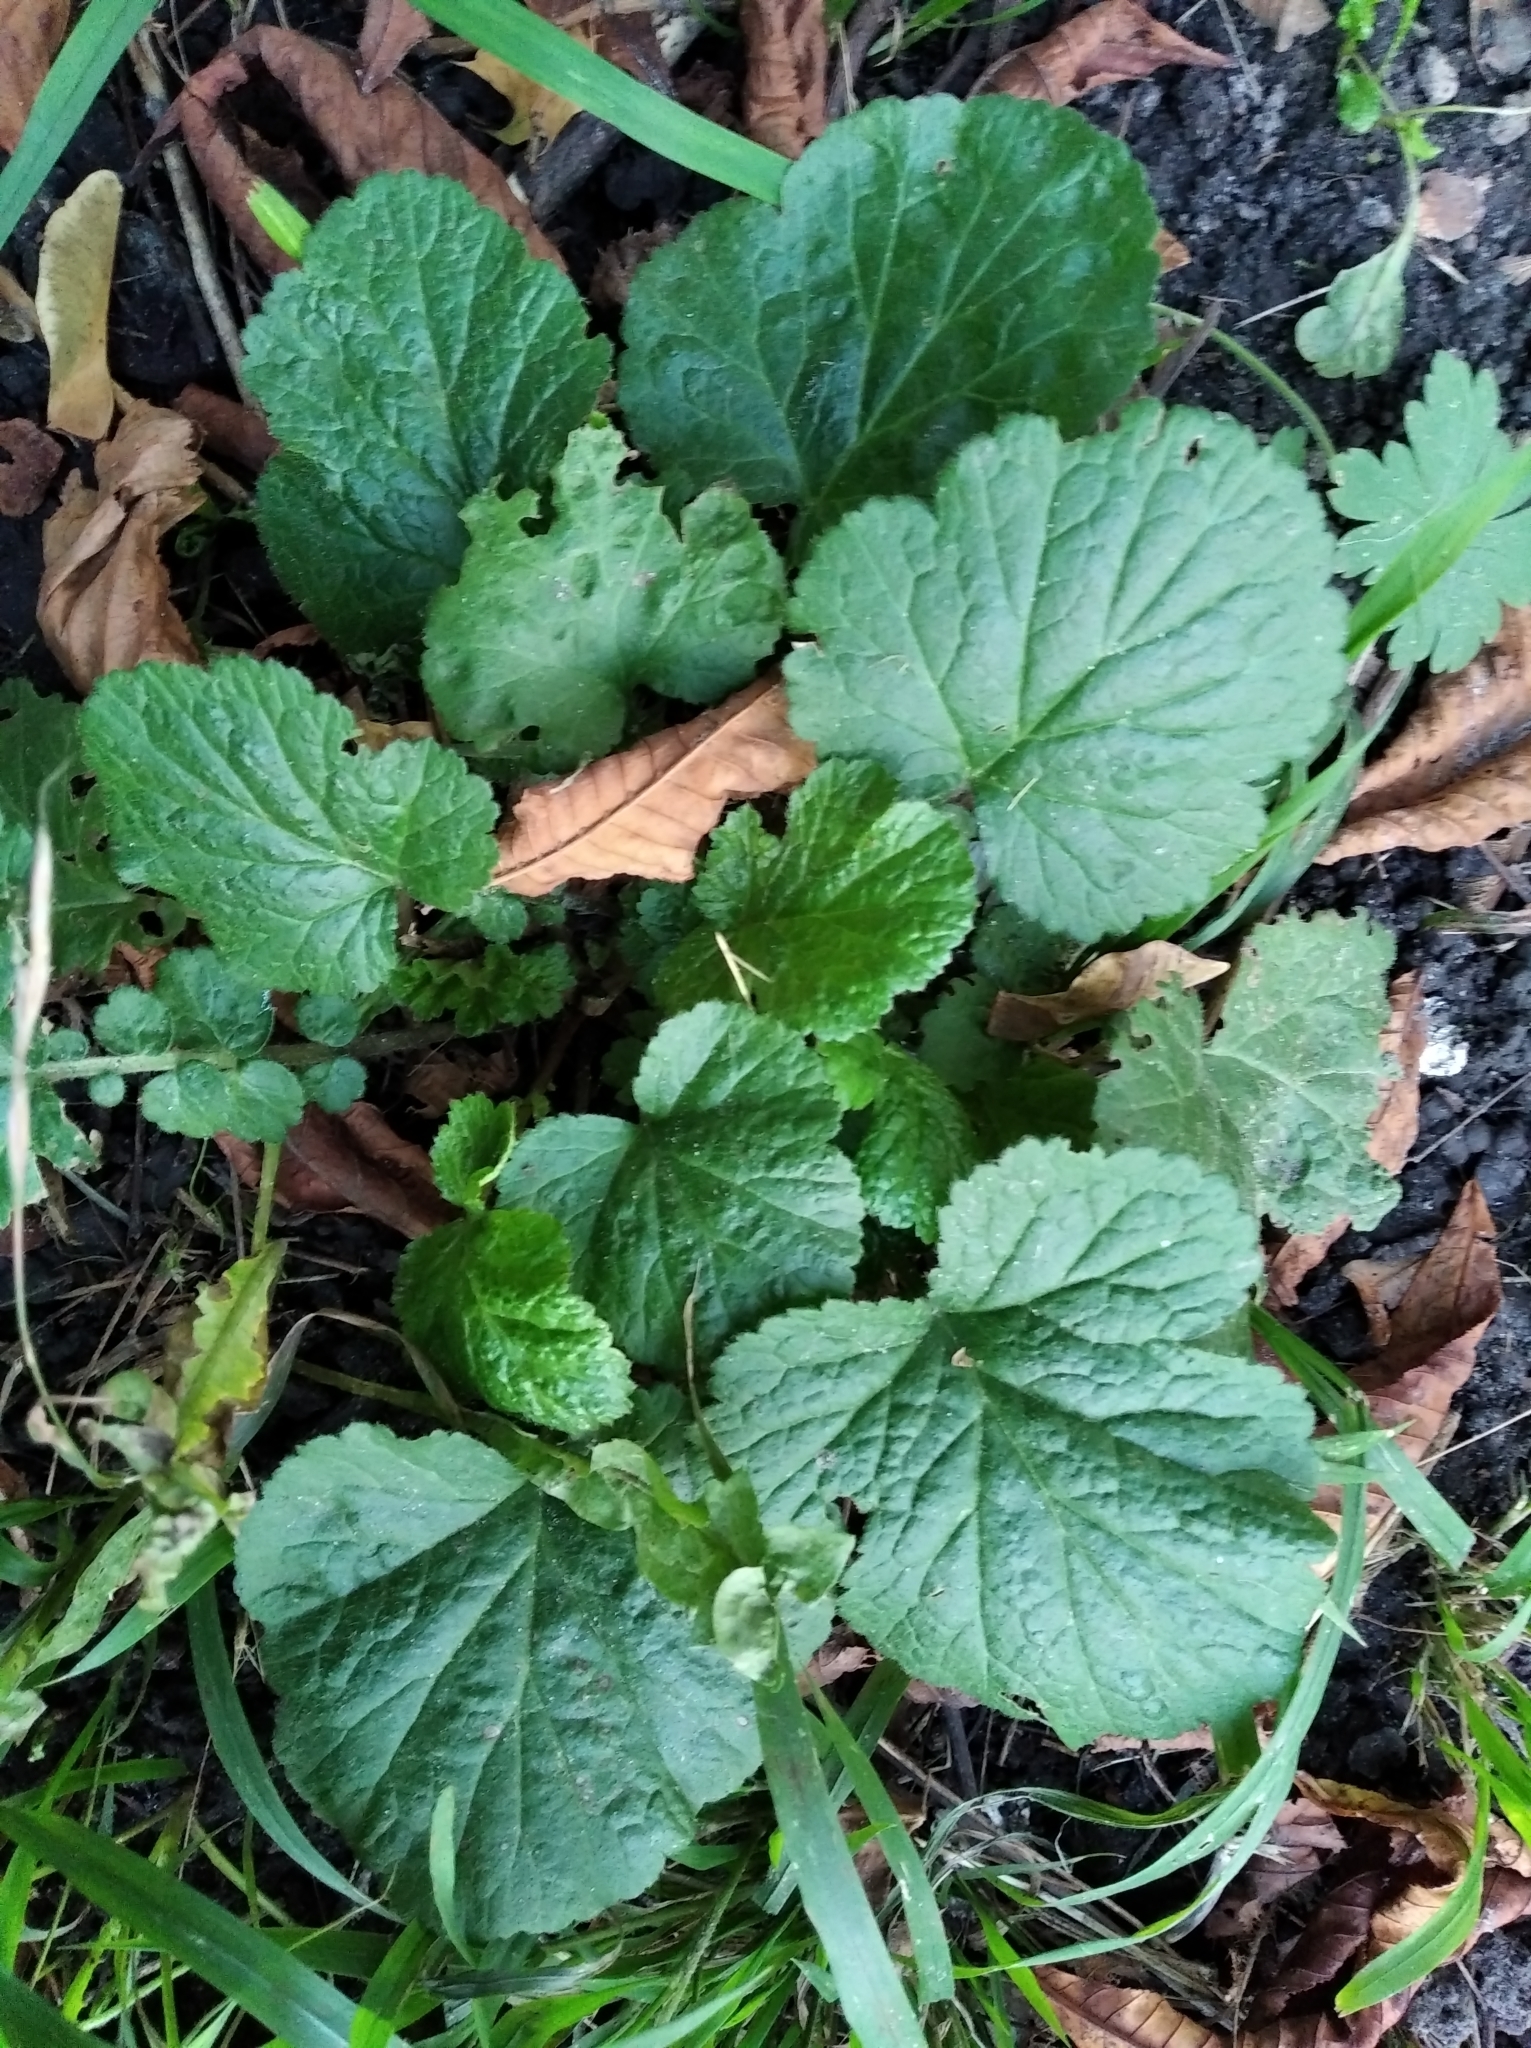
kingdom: Plantae
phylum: Tracheophyta
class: Magnoliopsida
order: Rosales
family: Rosaceae
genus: Geum
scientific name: Geum urbanum
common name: Wood avens
